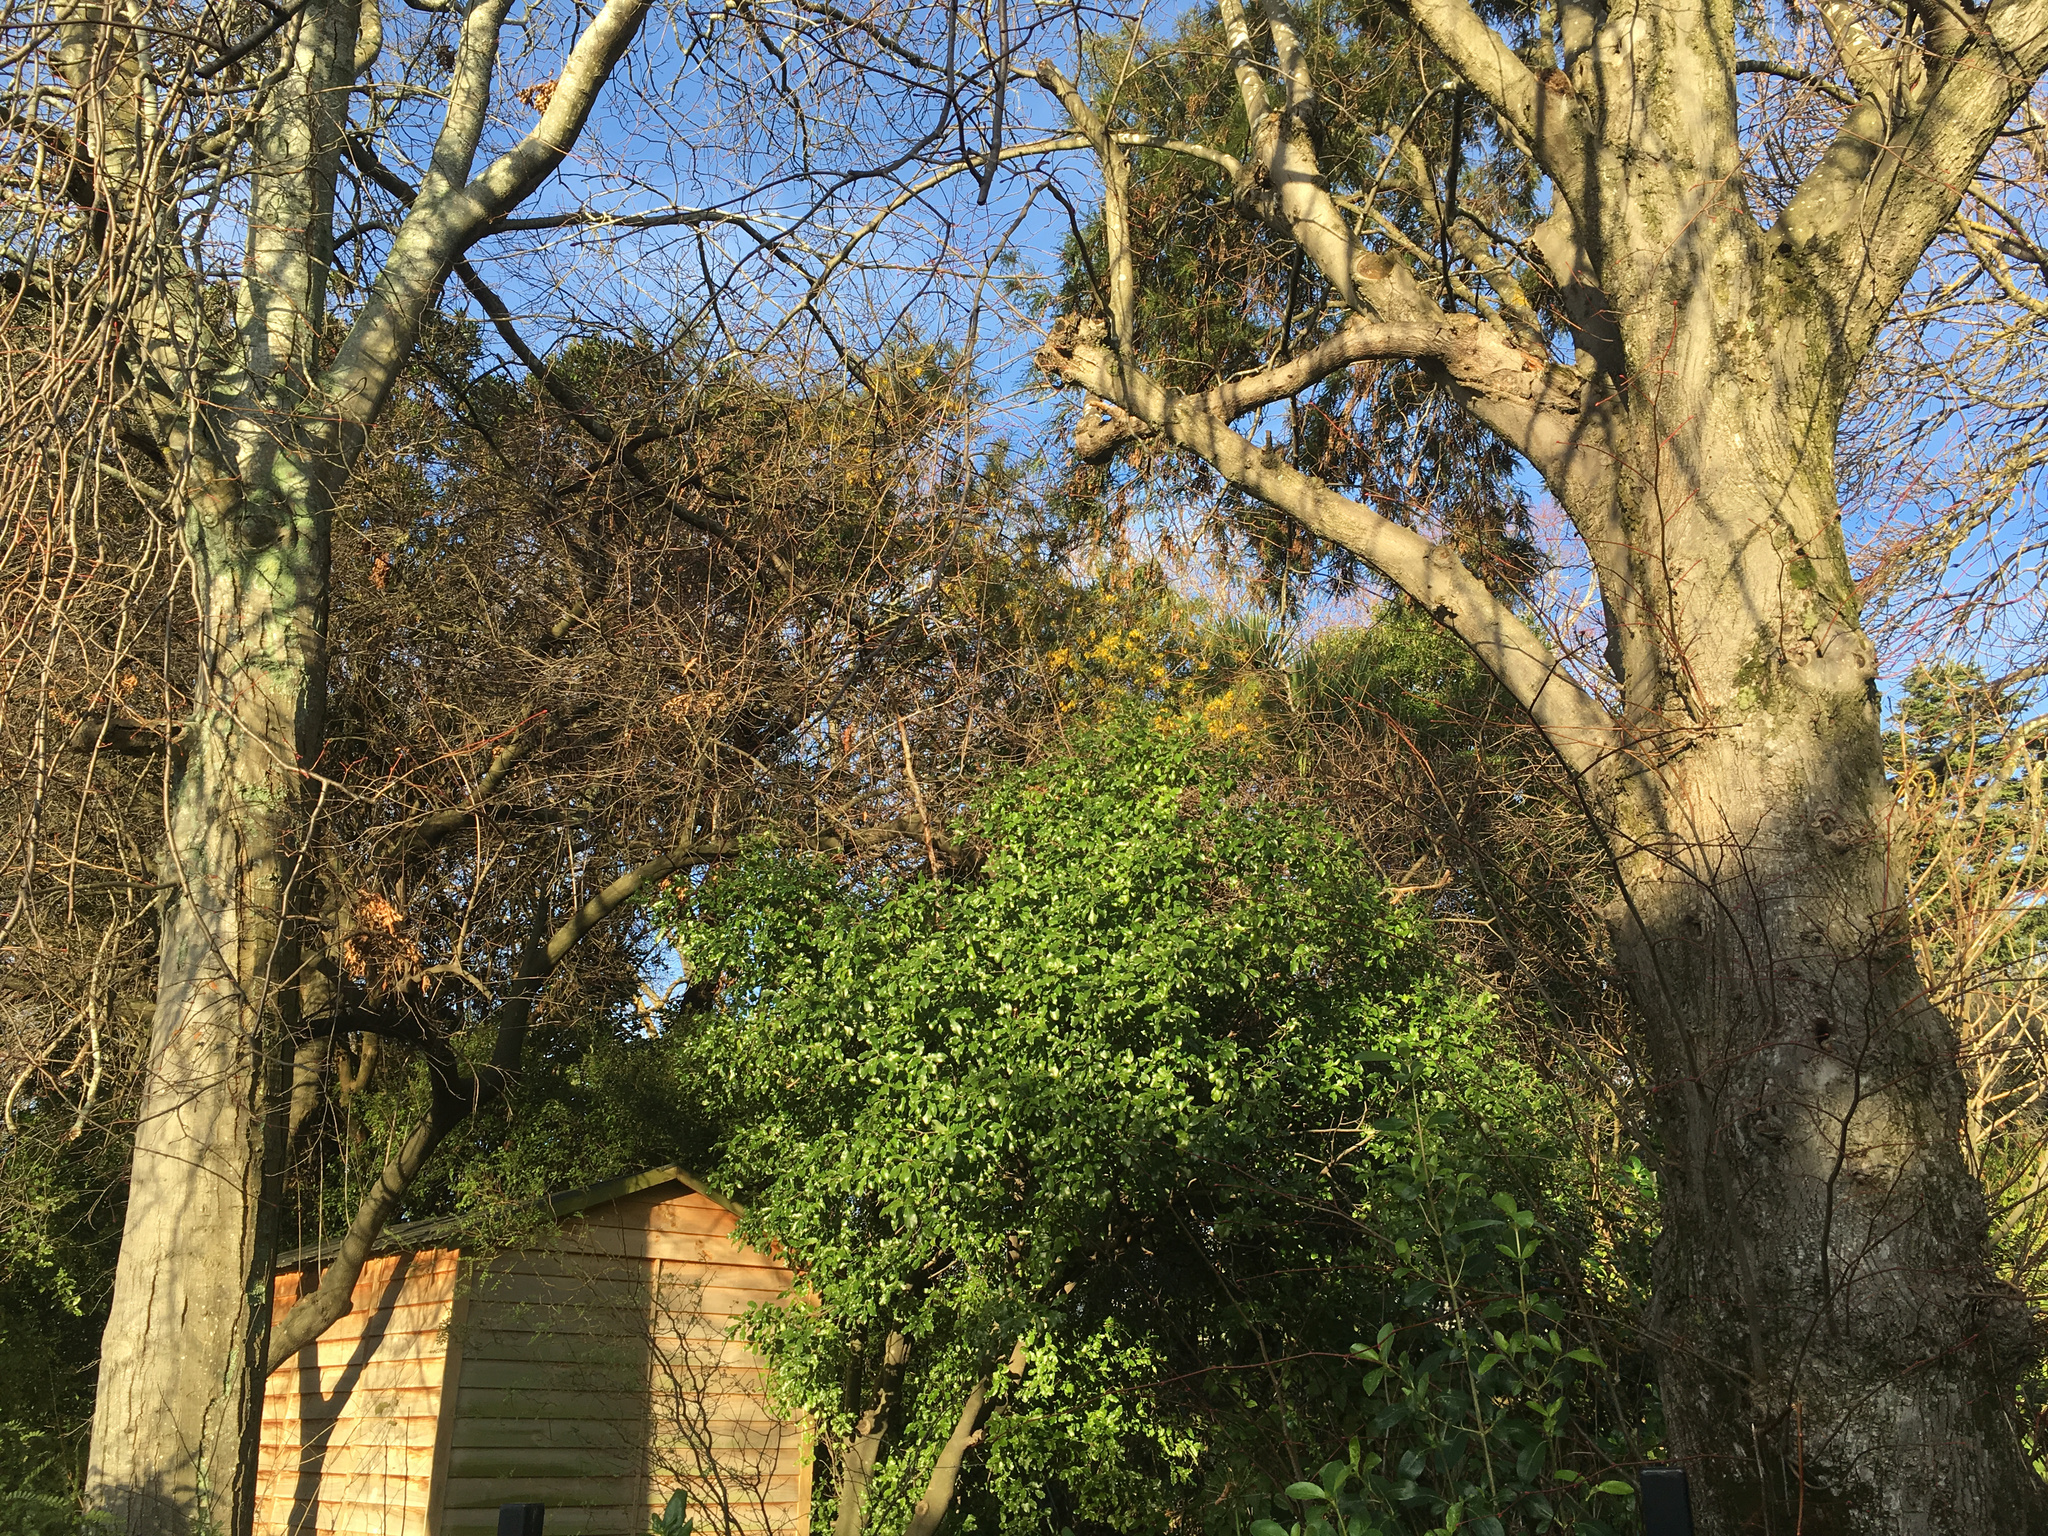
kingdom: Plantae
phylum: Tracheophyta
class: Magnoliopsida
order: Fabales
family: Fabaceae
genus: Sophora
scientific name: Sophora microphylla
